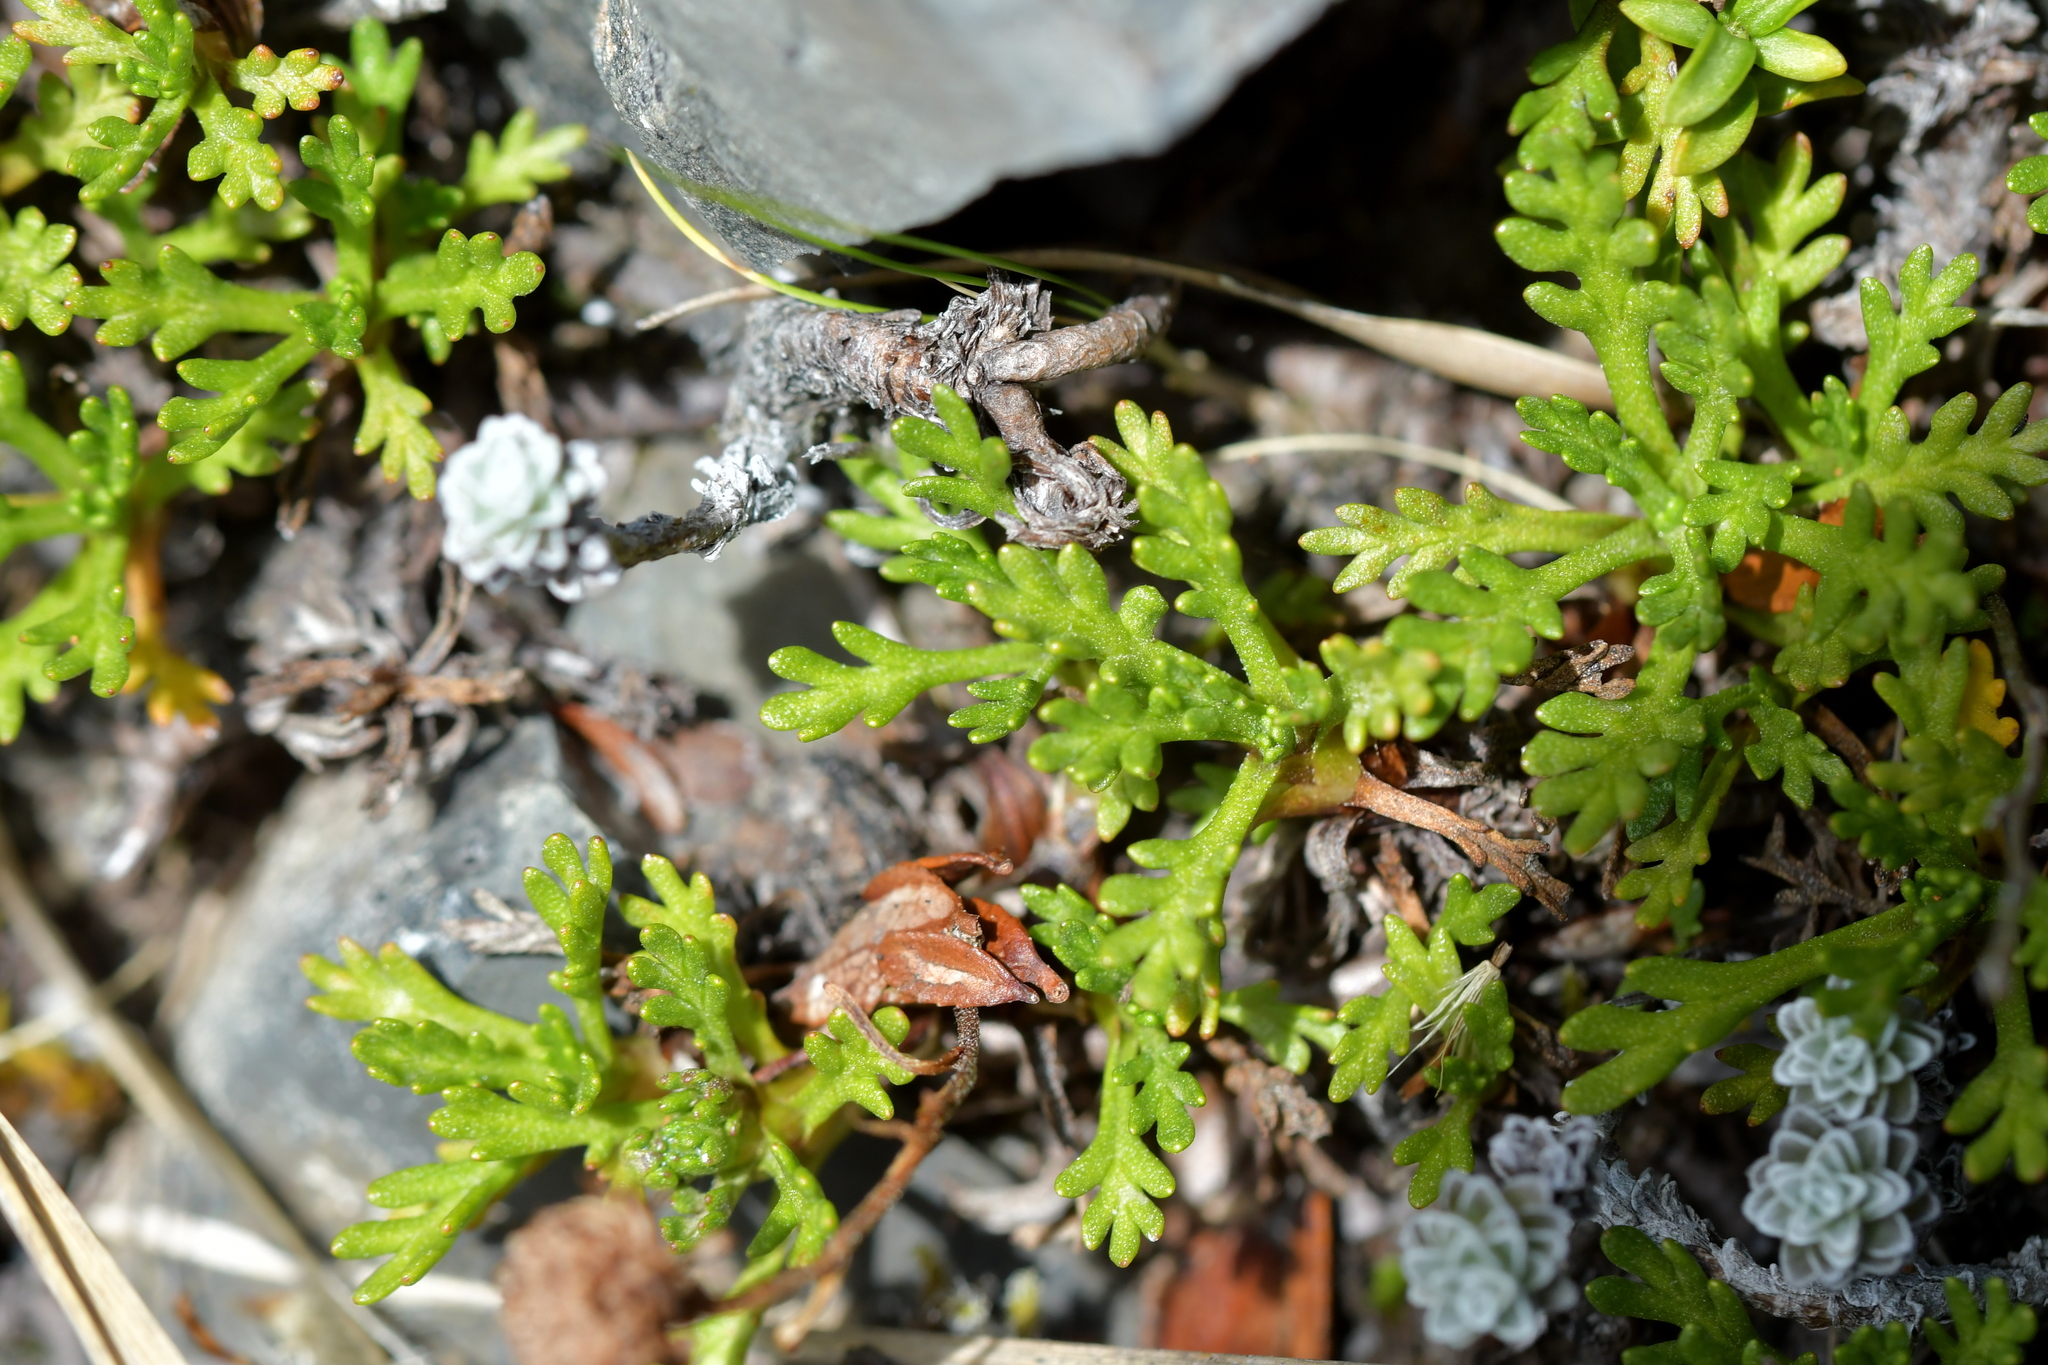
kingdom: Plantae
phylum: Tracheophyta
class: Magnoliopsida
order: Asterales
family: Asteraceae
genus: Leptinella
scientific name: Leptinella pyrethrifolia
